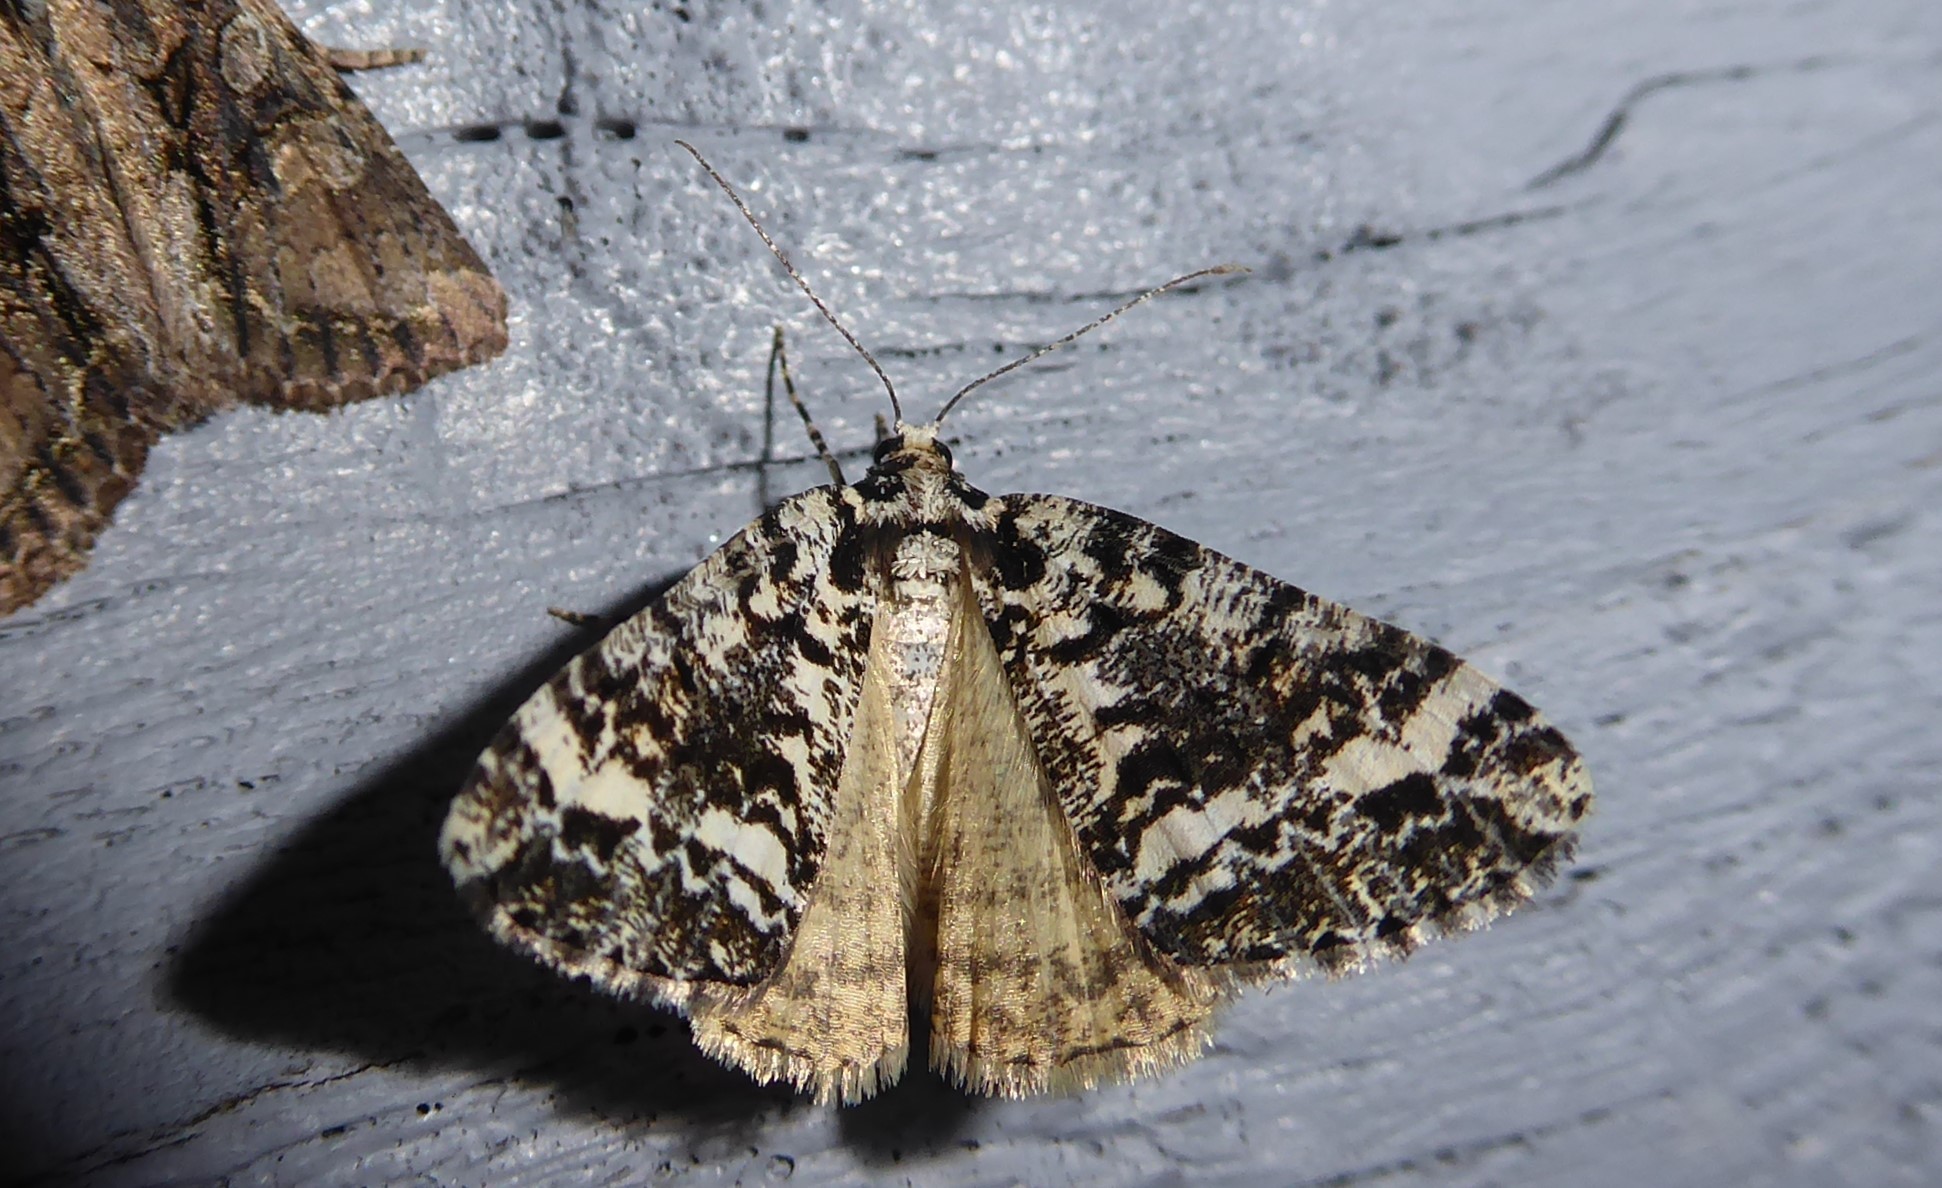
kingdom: Animalia
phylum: Arthropoda
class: Insecta
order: Lepidoptera
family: Geometridae
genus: Pseudocoremia
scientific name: Pseudocoremia leucelaea
